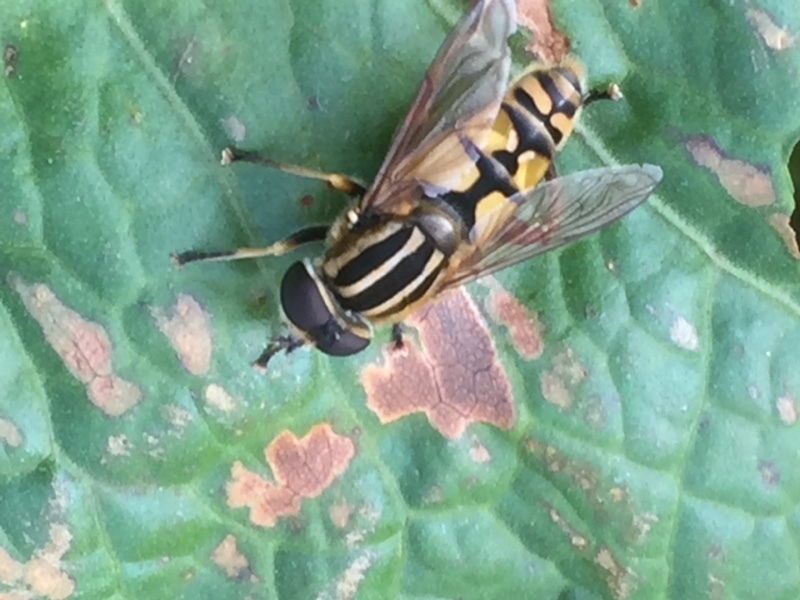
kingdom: Animalia
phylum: Arthropoda
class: Insecta
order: Diptera
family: Syrphidae
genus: Helophilus
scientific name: Helophilus pendulus
